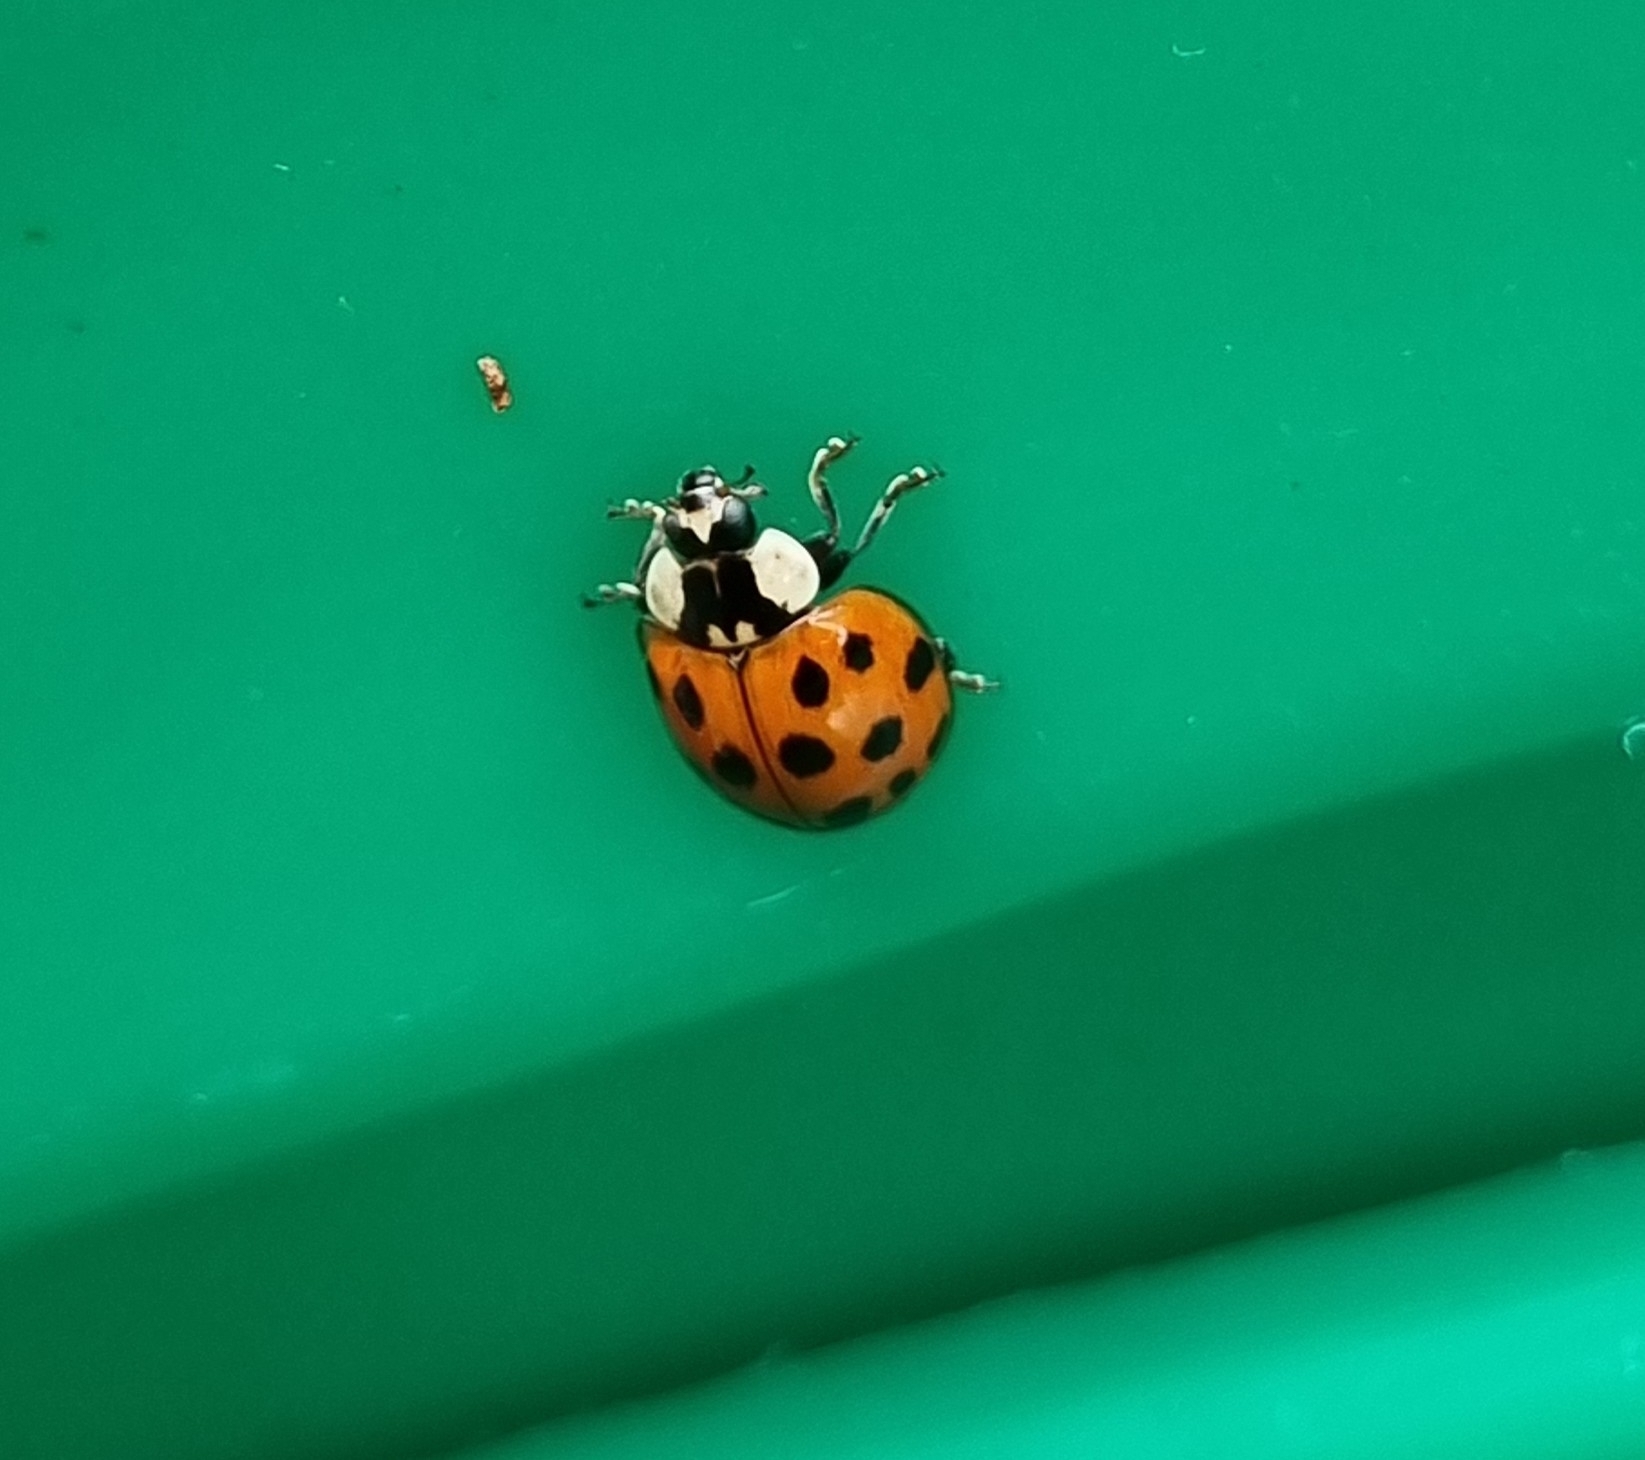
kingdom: Animalia
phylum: Arthropoda
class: Insecta
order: Coleoptera
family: Coccinellidae
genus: Harmonia
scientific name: Harmonia axyridis
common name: Harlequin ladybird
